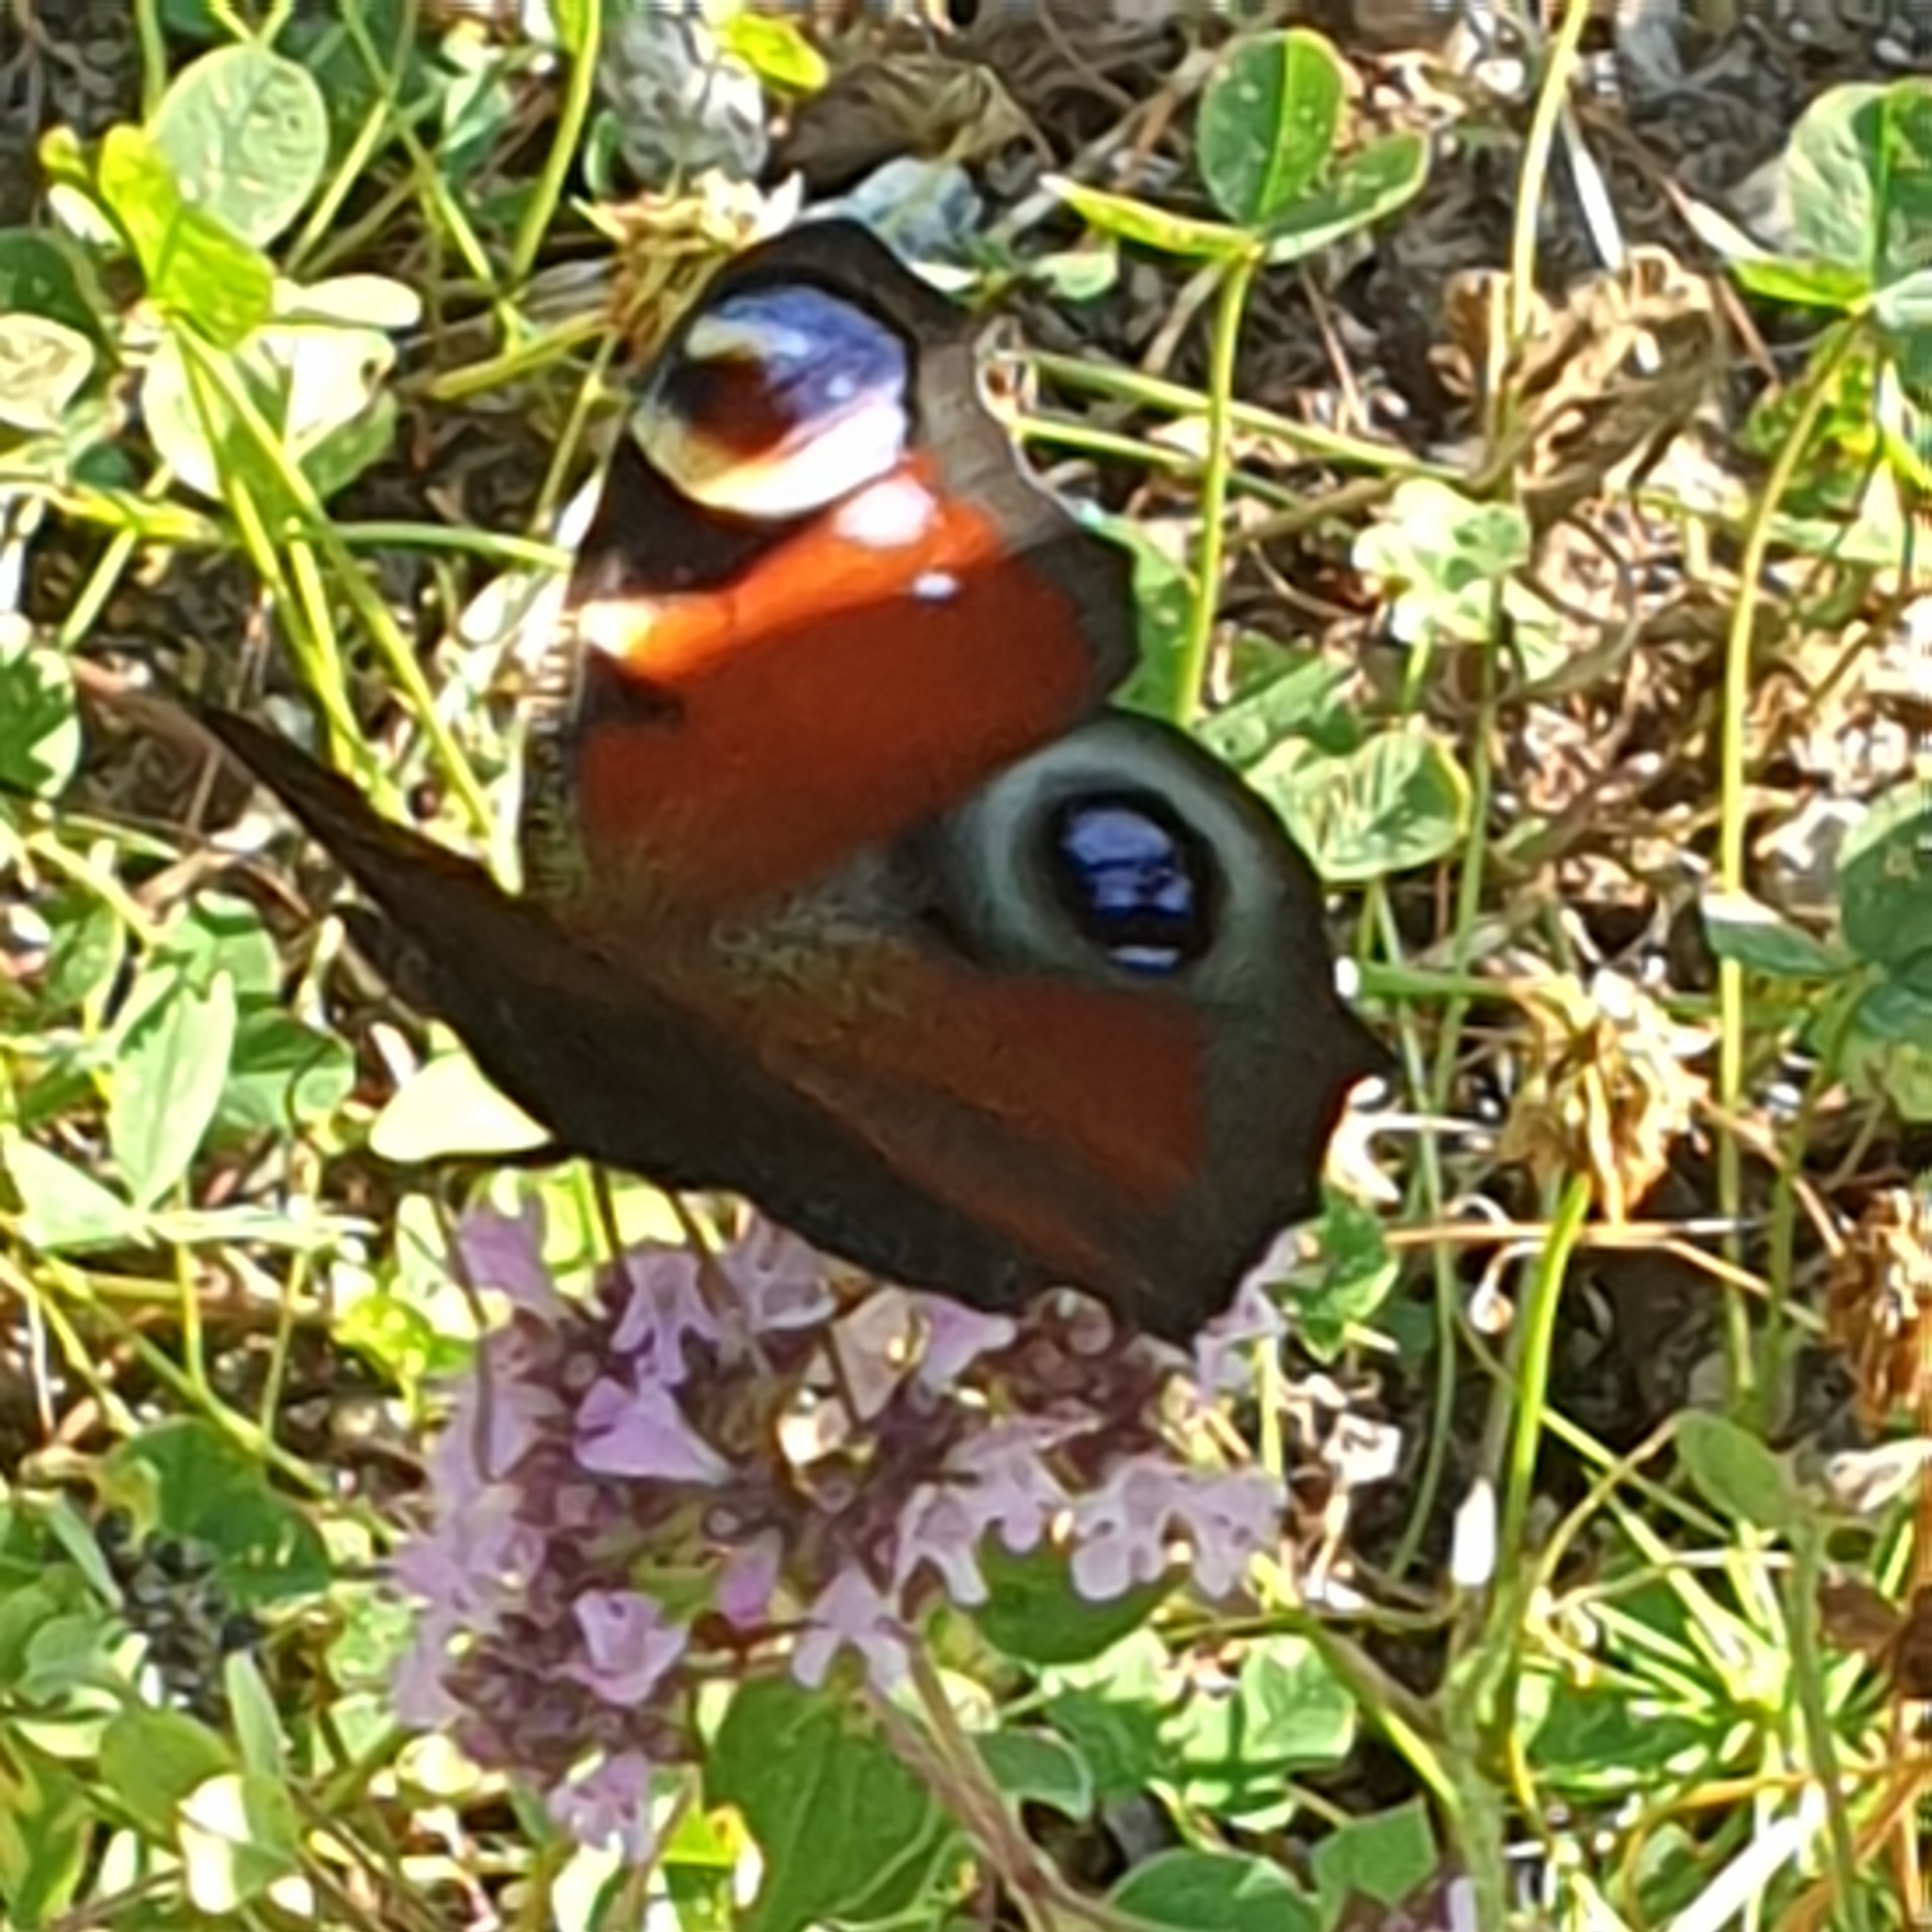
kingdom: Animalia
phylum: Arthropoda
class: Insecta
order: Lepidoptera
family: Nymphalidae
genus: Aglais
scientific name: Aglais io
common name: Peacock
